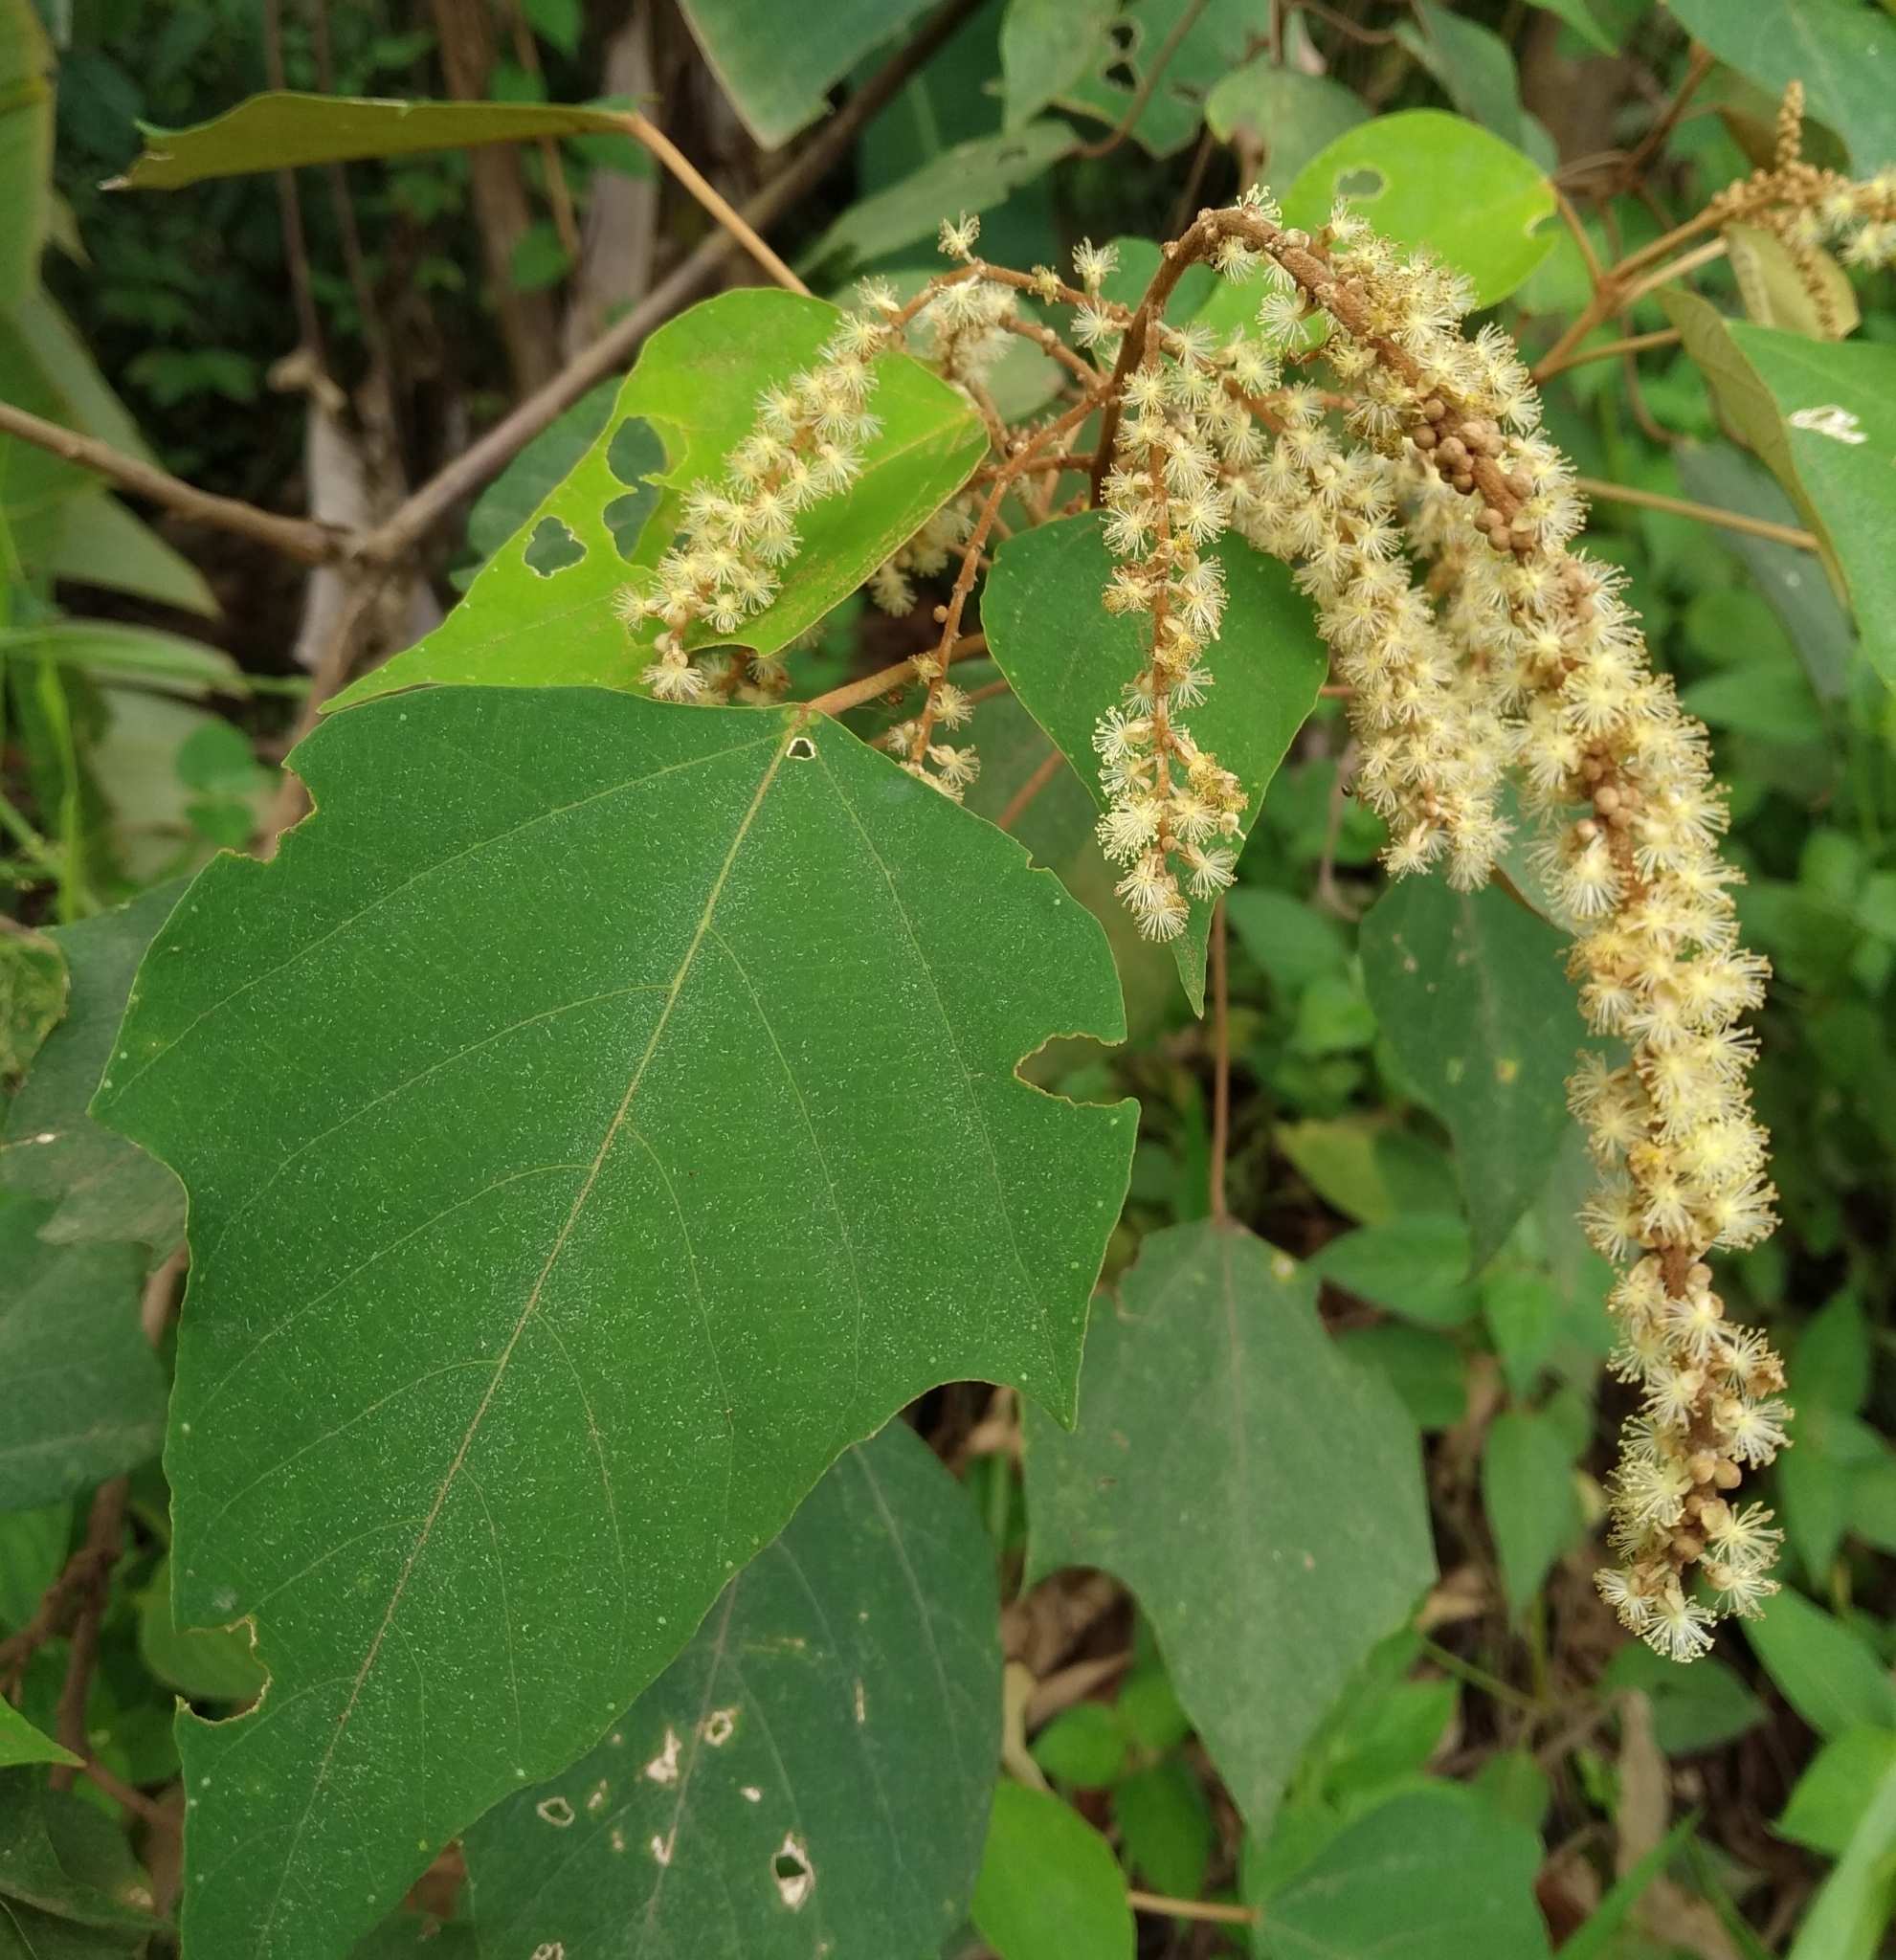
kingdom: Plantae
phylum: Tracheophyta
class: Magnoliopsida
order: Malpighiales
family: Euphorbiaceae
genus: Mallotus
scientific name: Mallotus paniculatus
